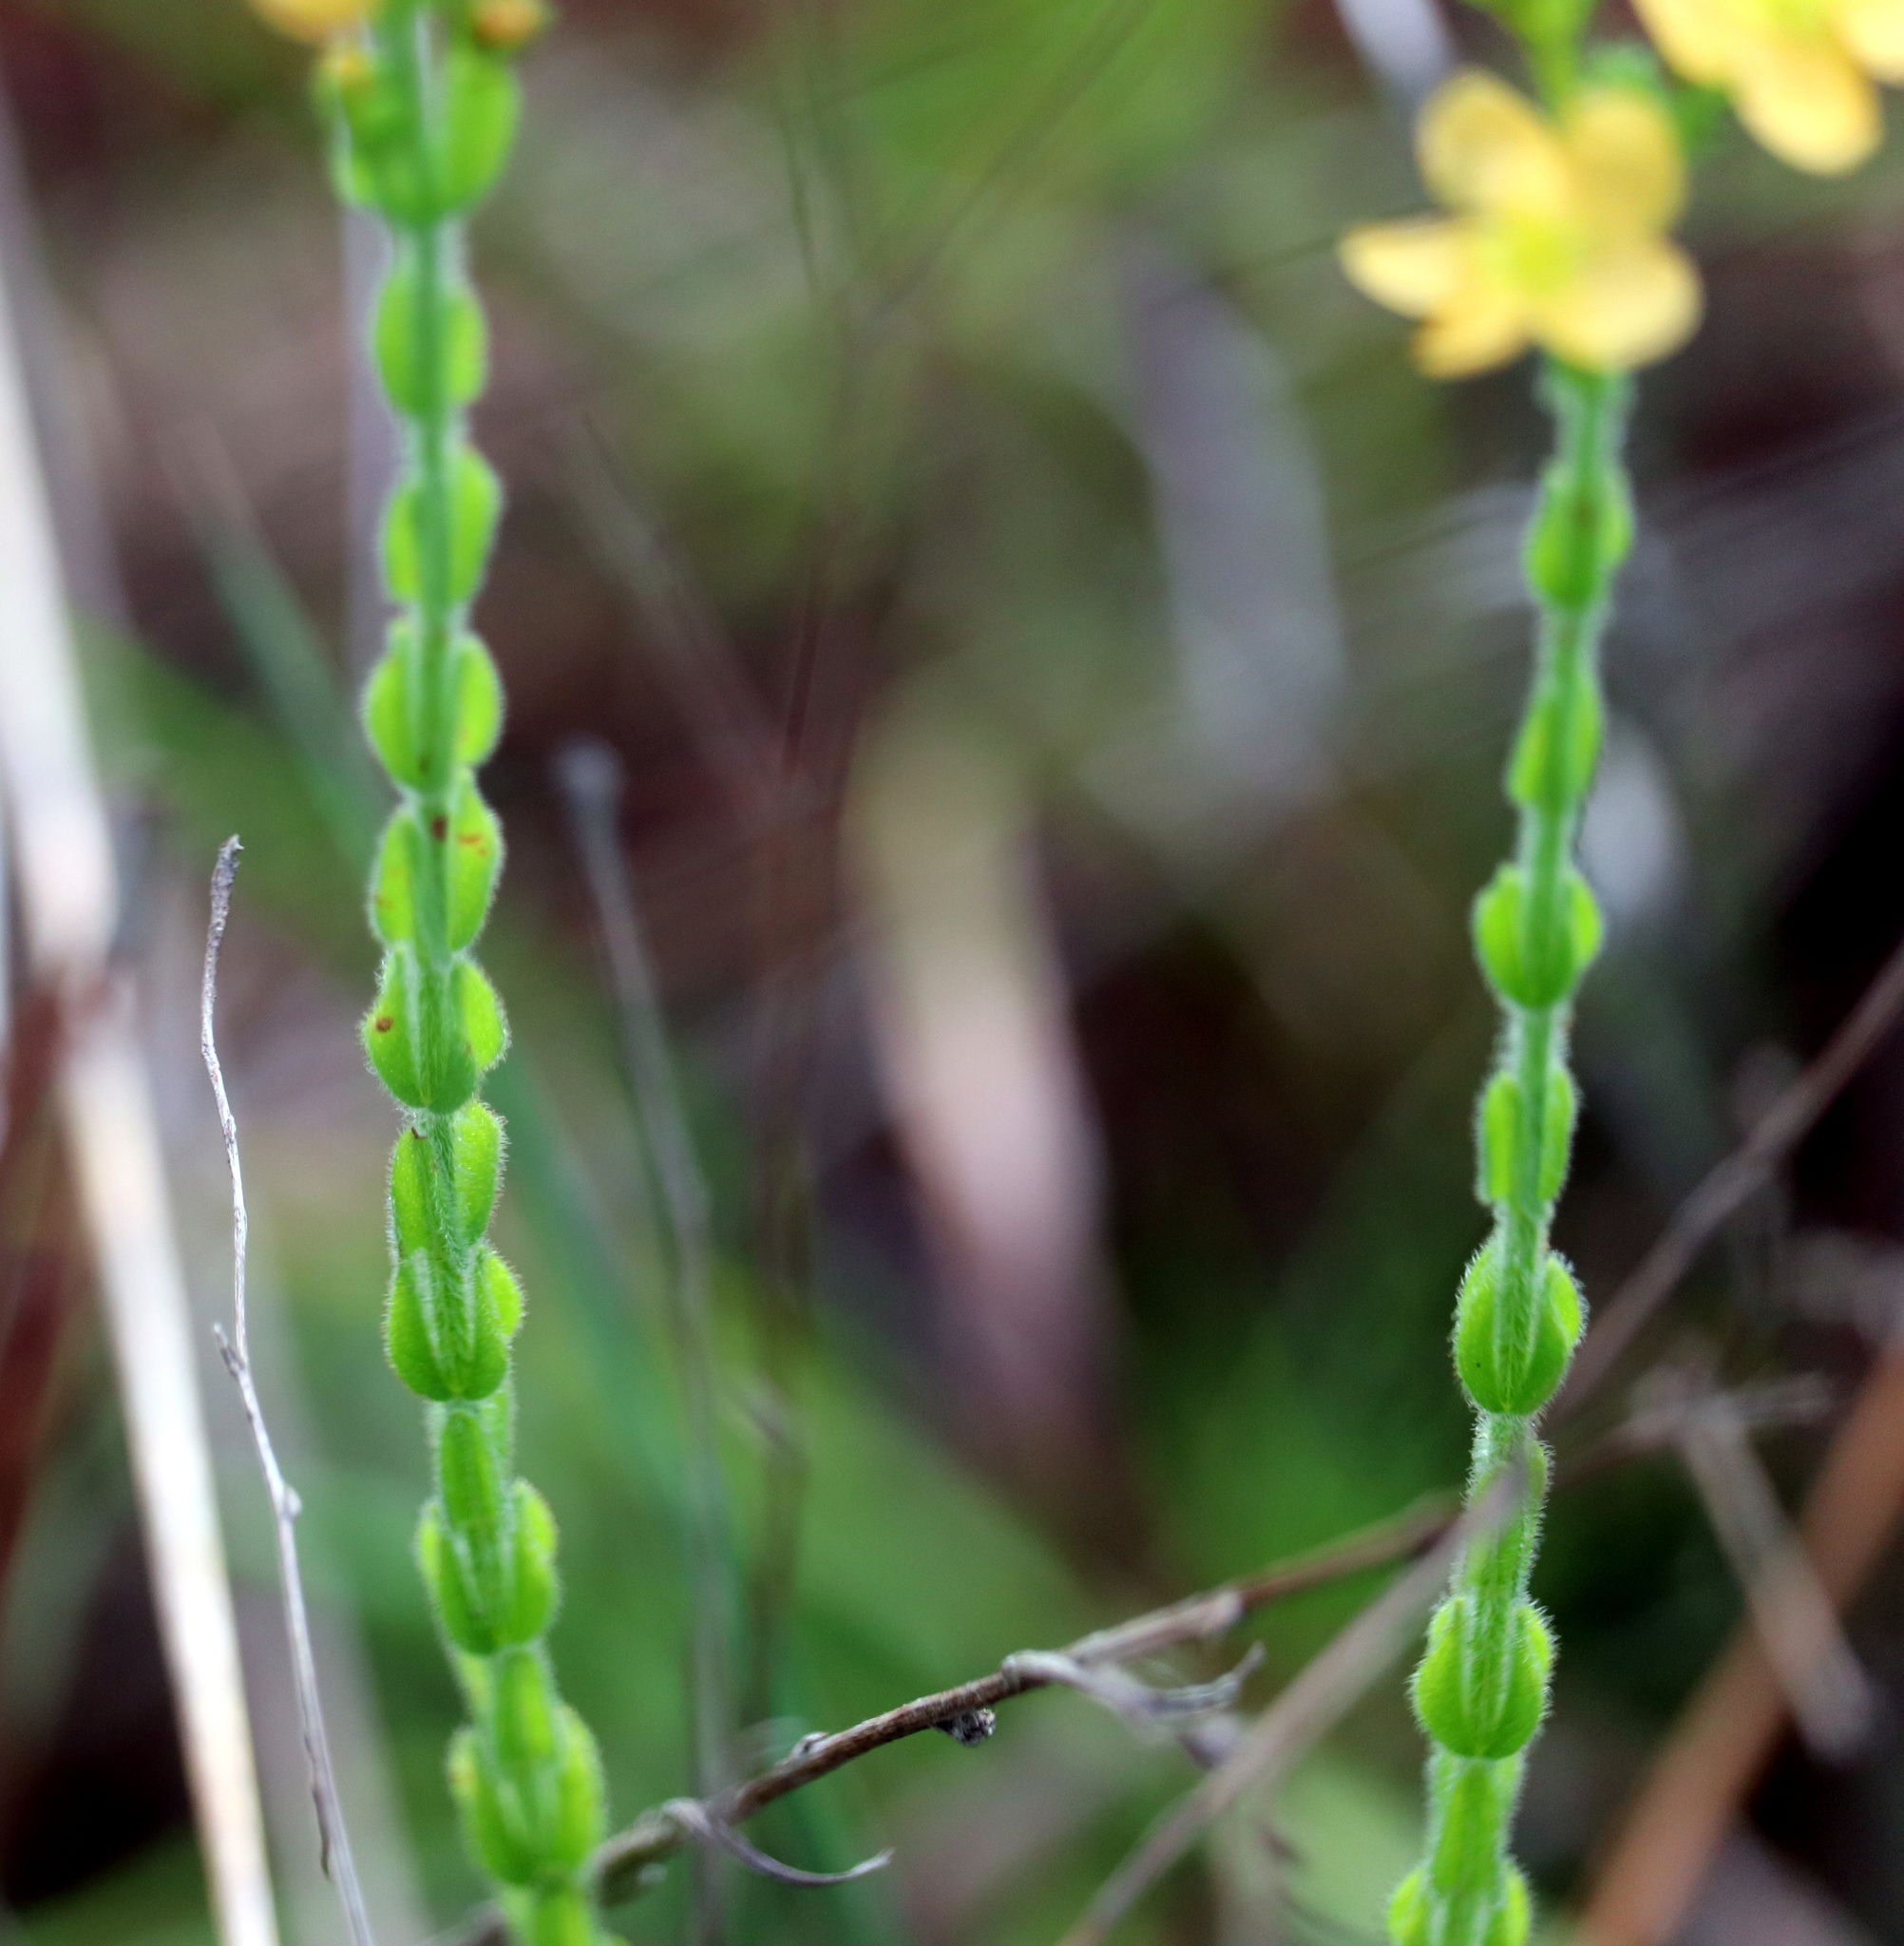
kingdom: Plantae
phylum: Tracheophyta
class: Magnoliopsida
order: Malpighiales
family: Hypericaceae
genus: Hypericum
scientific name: Hypericum setosum
